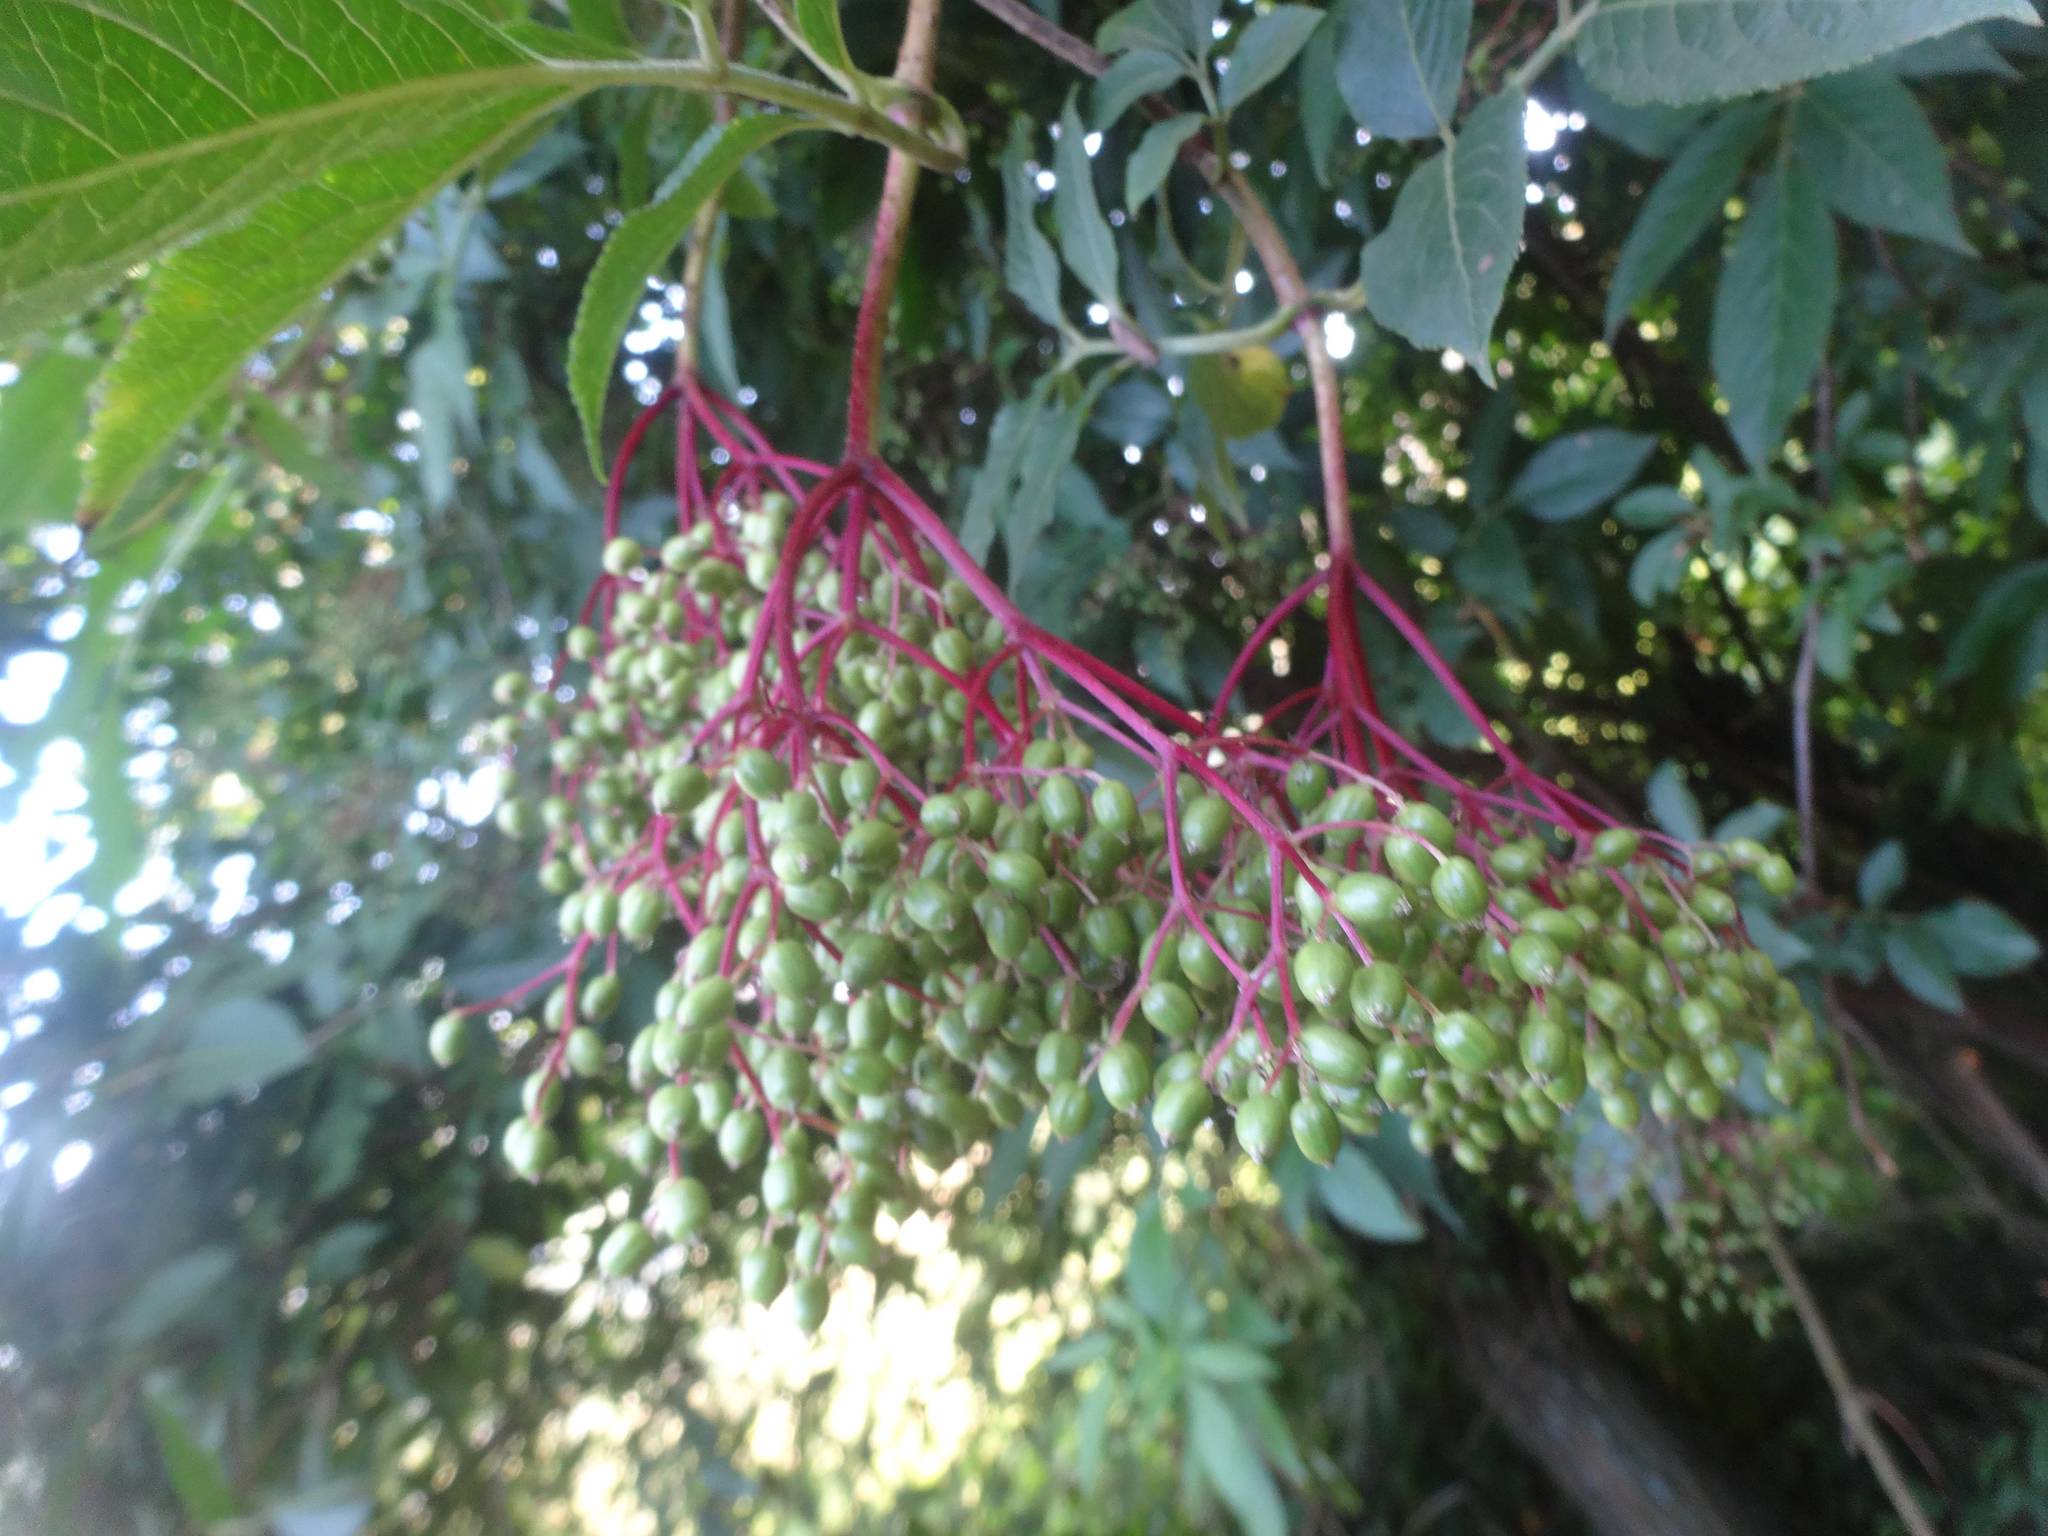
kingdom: Plantae
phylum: Tracheophyta
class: Magnoliopsida
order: Dipsacales
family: Viburnaceae
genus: Sambucus
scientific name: Sambucus nigra
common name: Elder
